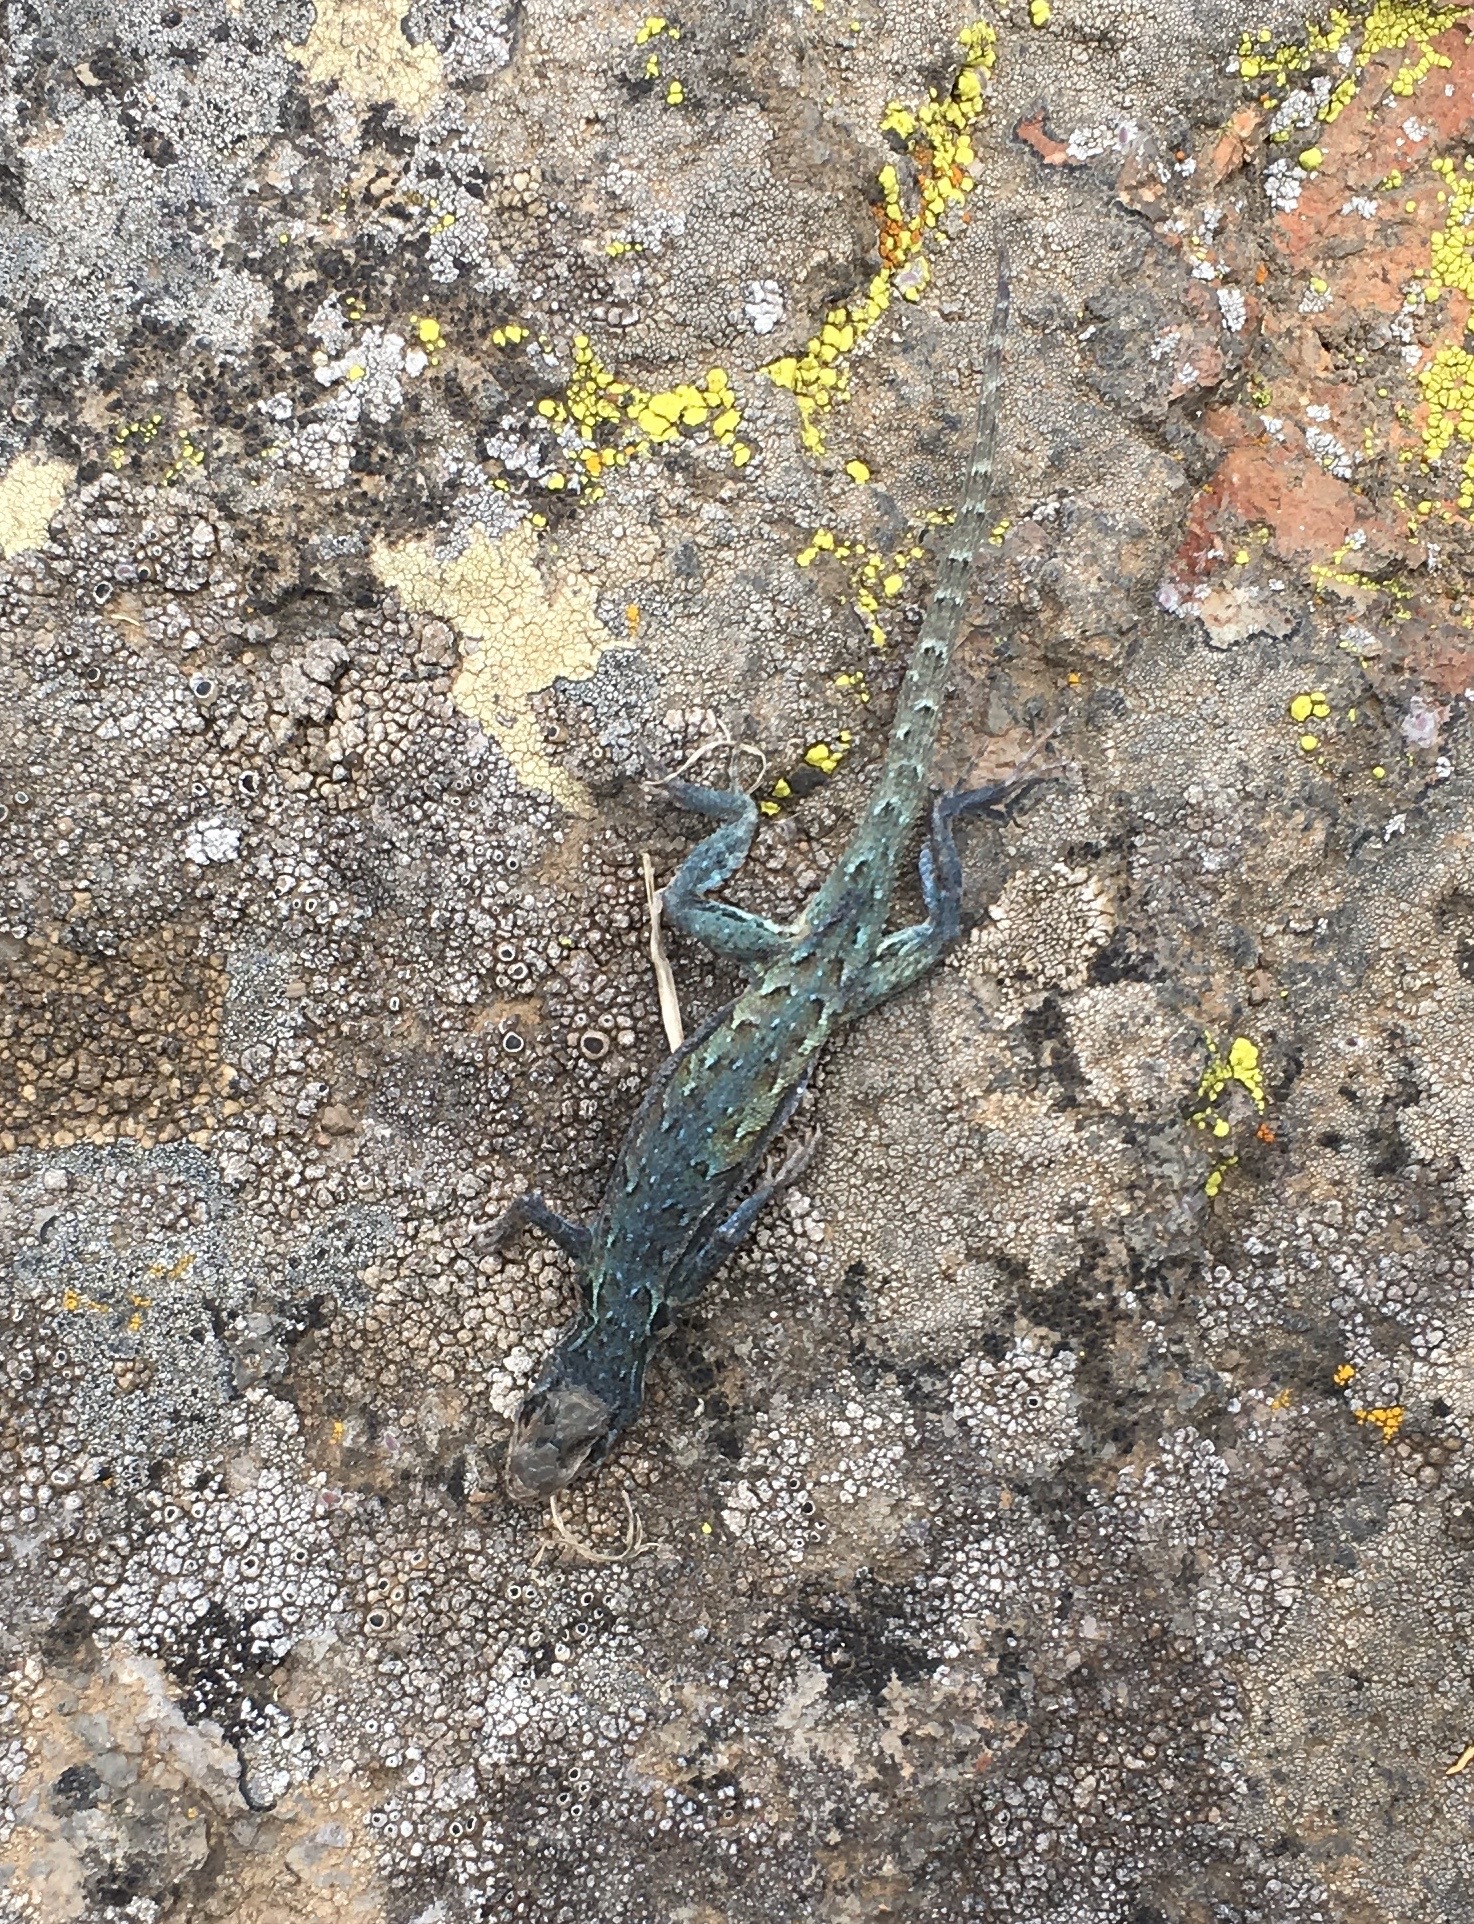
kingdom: Animalia
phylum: Chordata
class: Squamata
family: Phrynosomatidae
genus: Uta
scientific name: Uta stansburiana
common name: Side-blotched lizard
